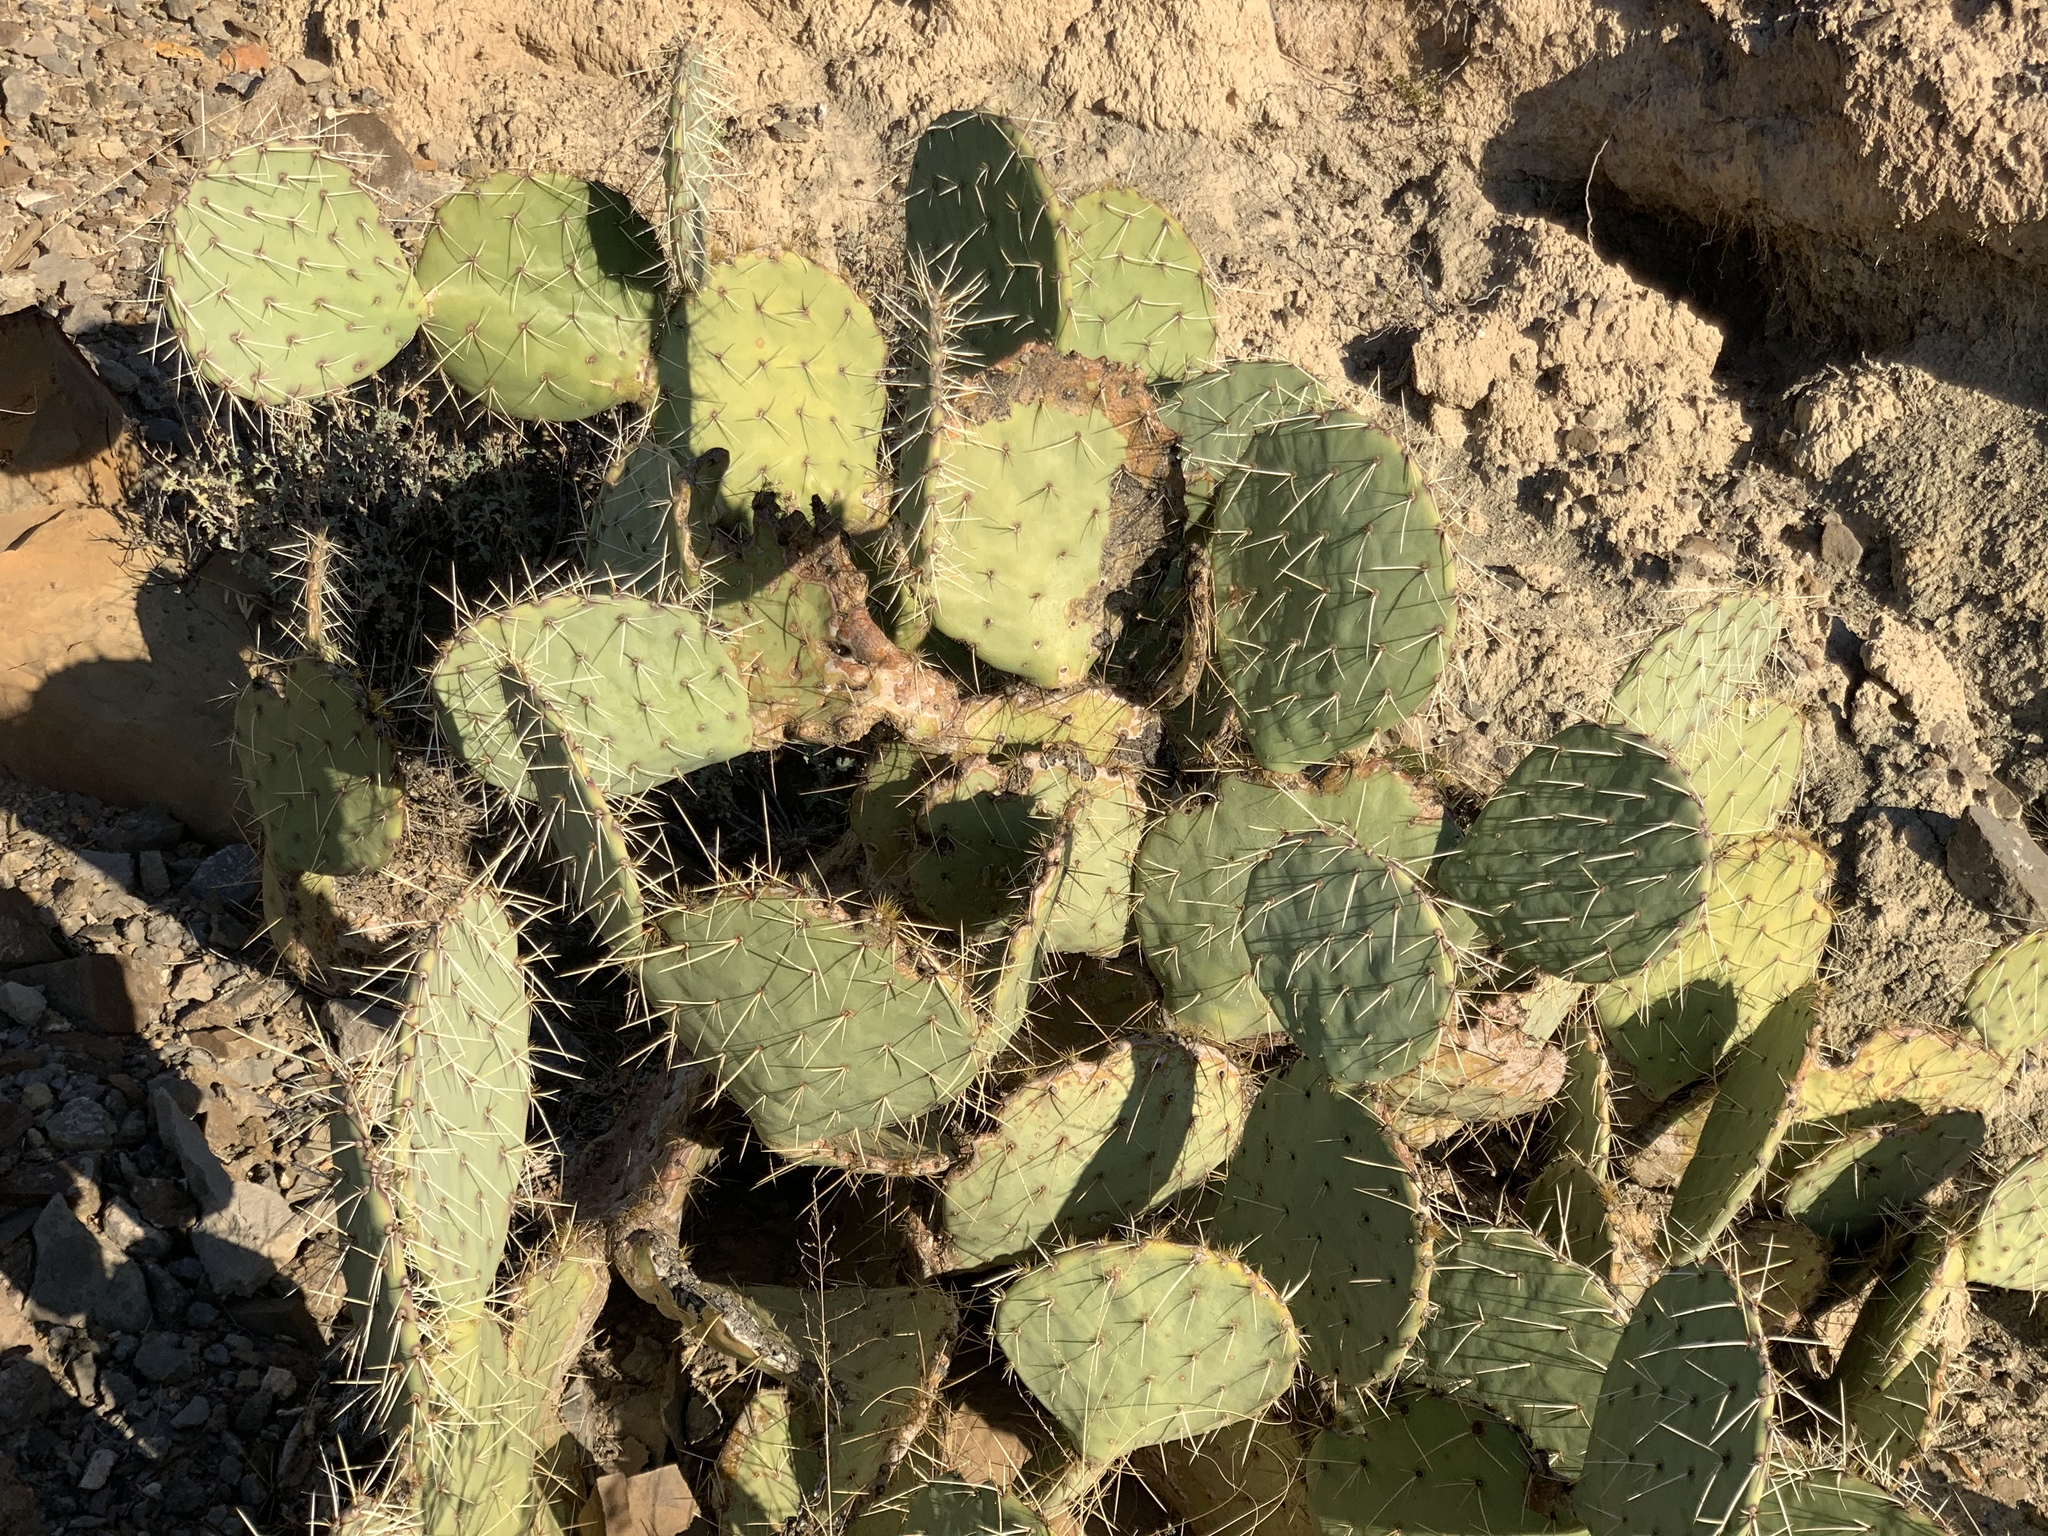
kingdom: Plantae
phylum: Tracheophyta
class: Magnoliopsida
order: Caryophyllales
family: Cactaceae
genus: Opuntia
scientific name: Opuntia engelmannii
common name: Cactus-apple
